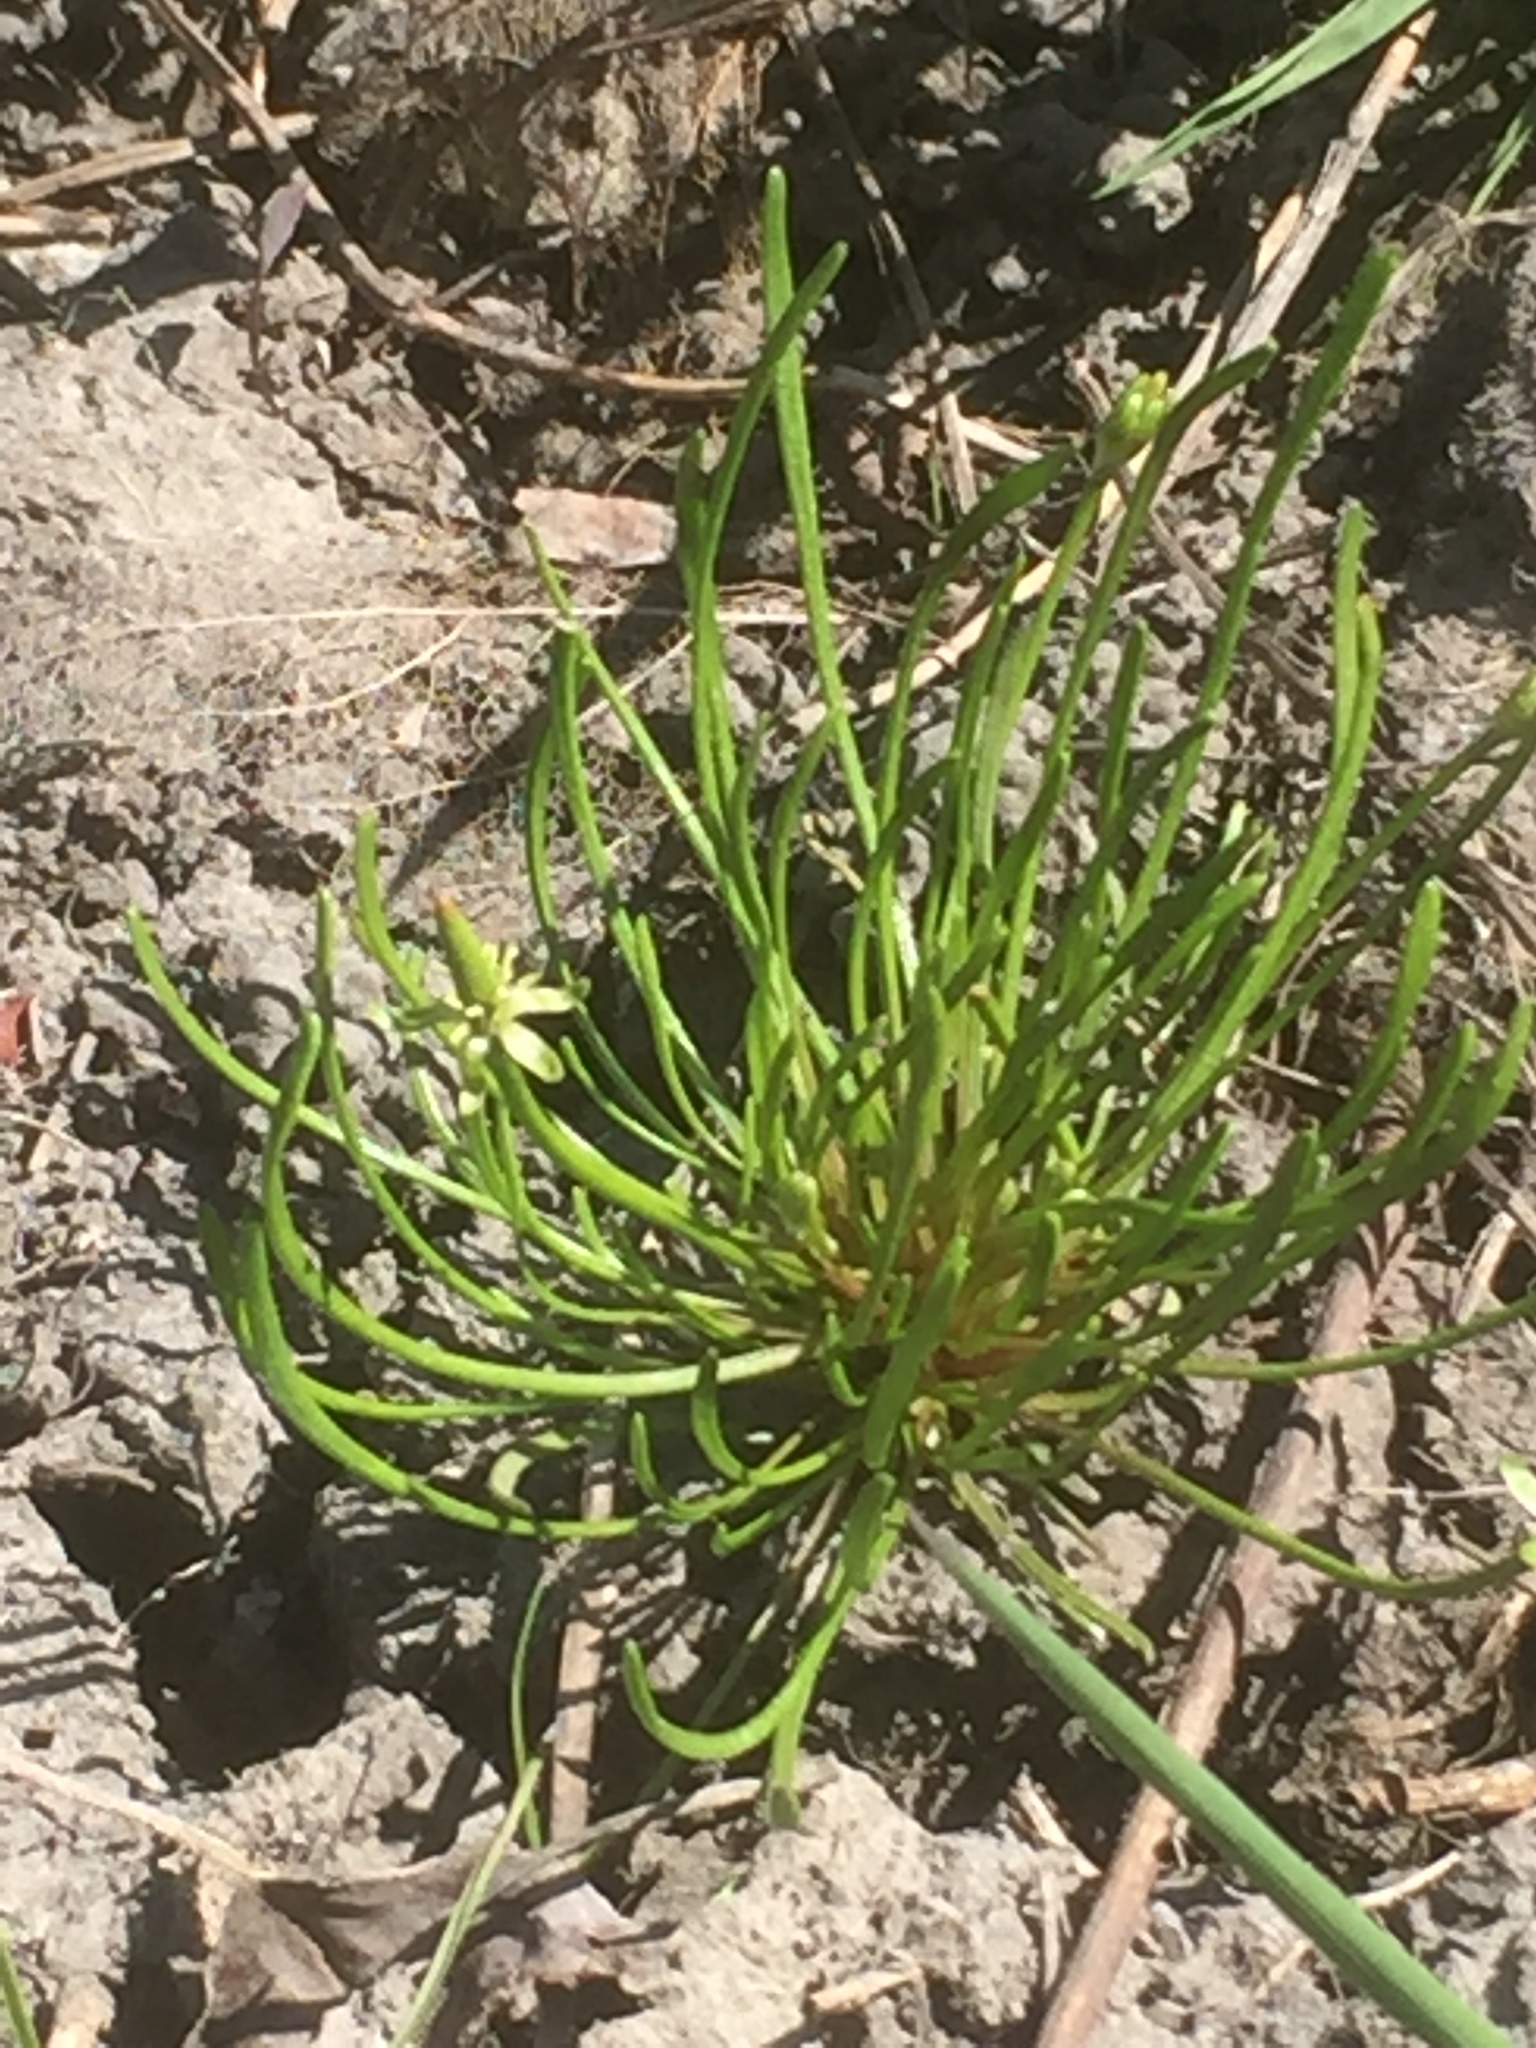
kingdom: Plantae
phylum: Tracheophyta
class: Magnoliopsida
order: Ranunculales
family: Ranunculaceae
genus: Myosurus
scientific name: Myosurus minimus
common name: Mousetail
